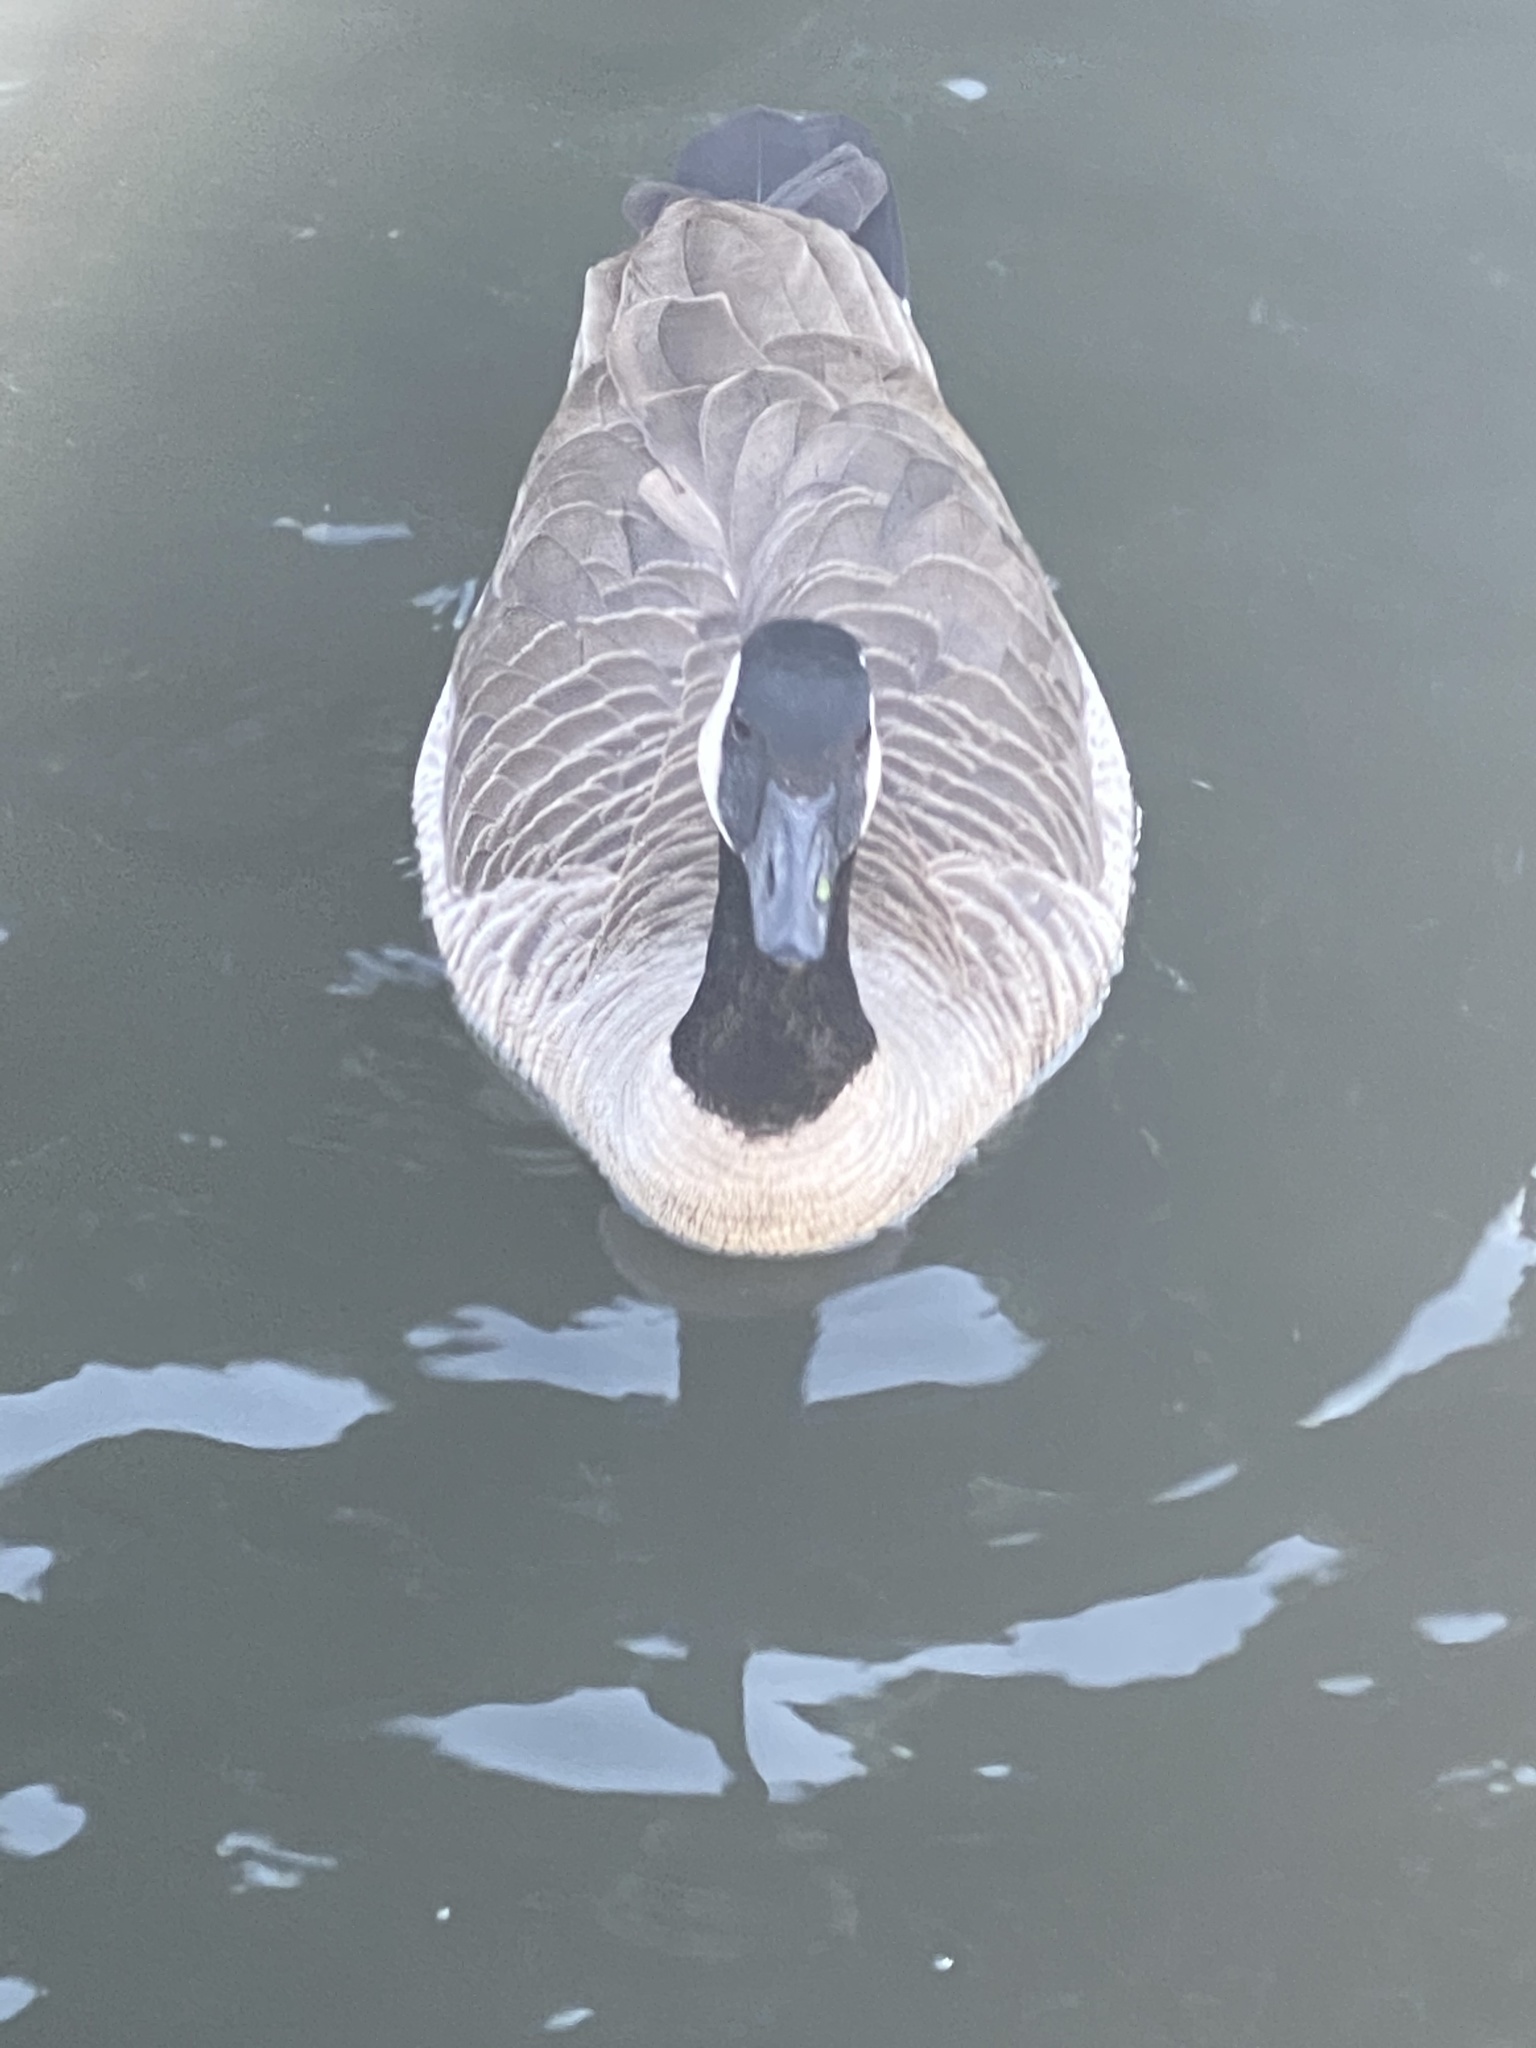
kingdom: Animalia
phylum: Chordata
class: Aves
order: Anseriformes
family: Anatidae
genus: Branta
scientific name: Branta canadensis
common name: Canada goose
